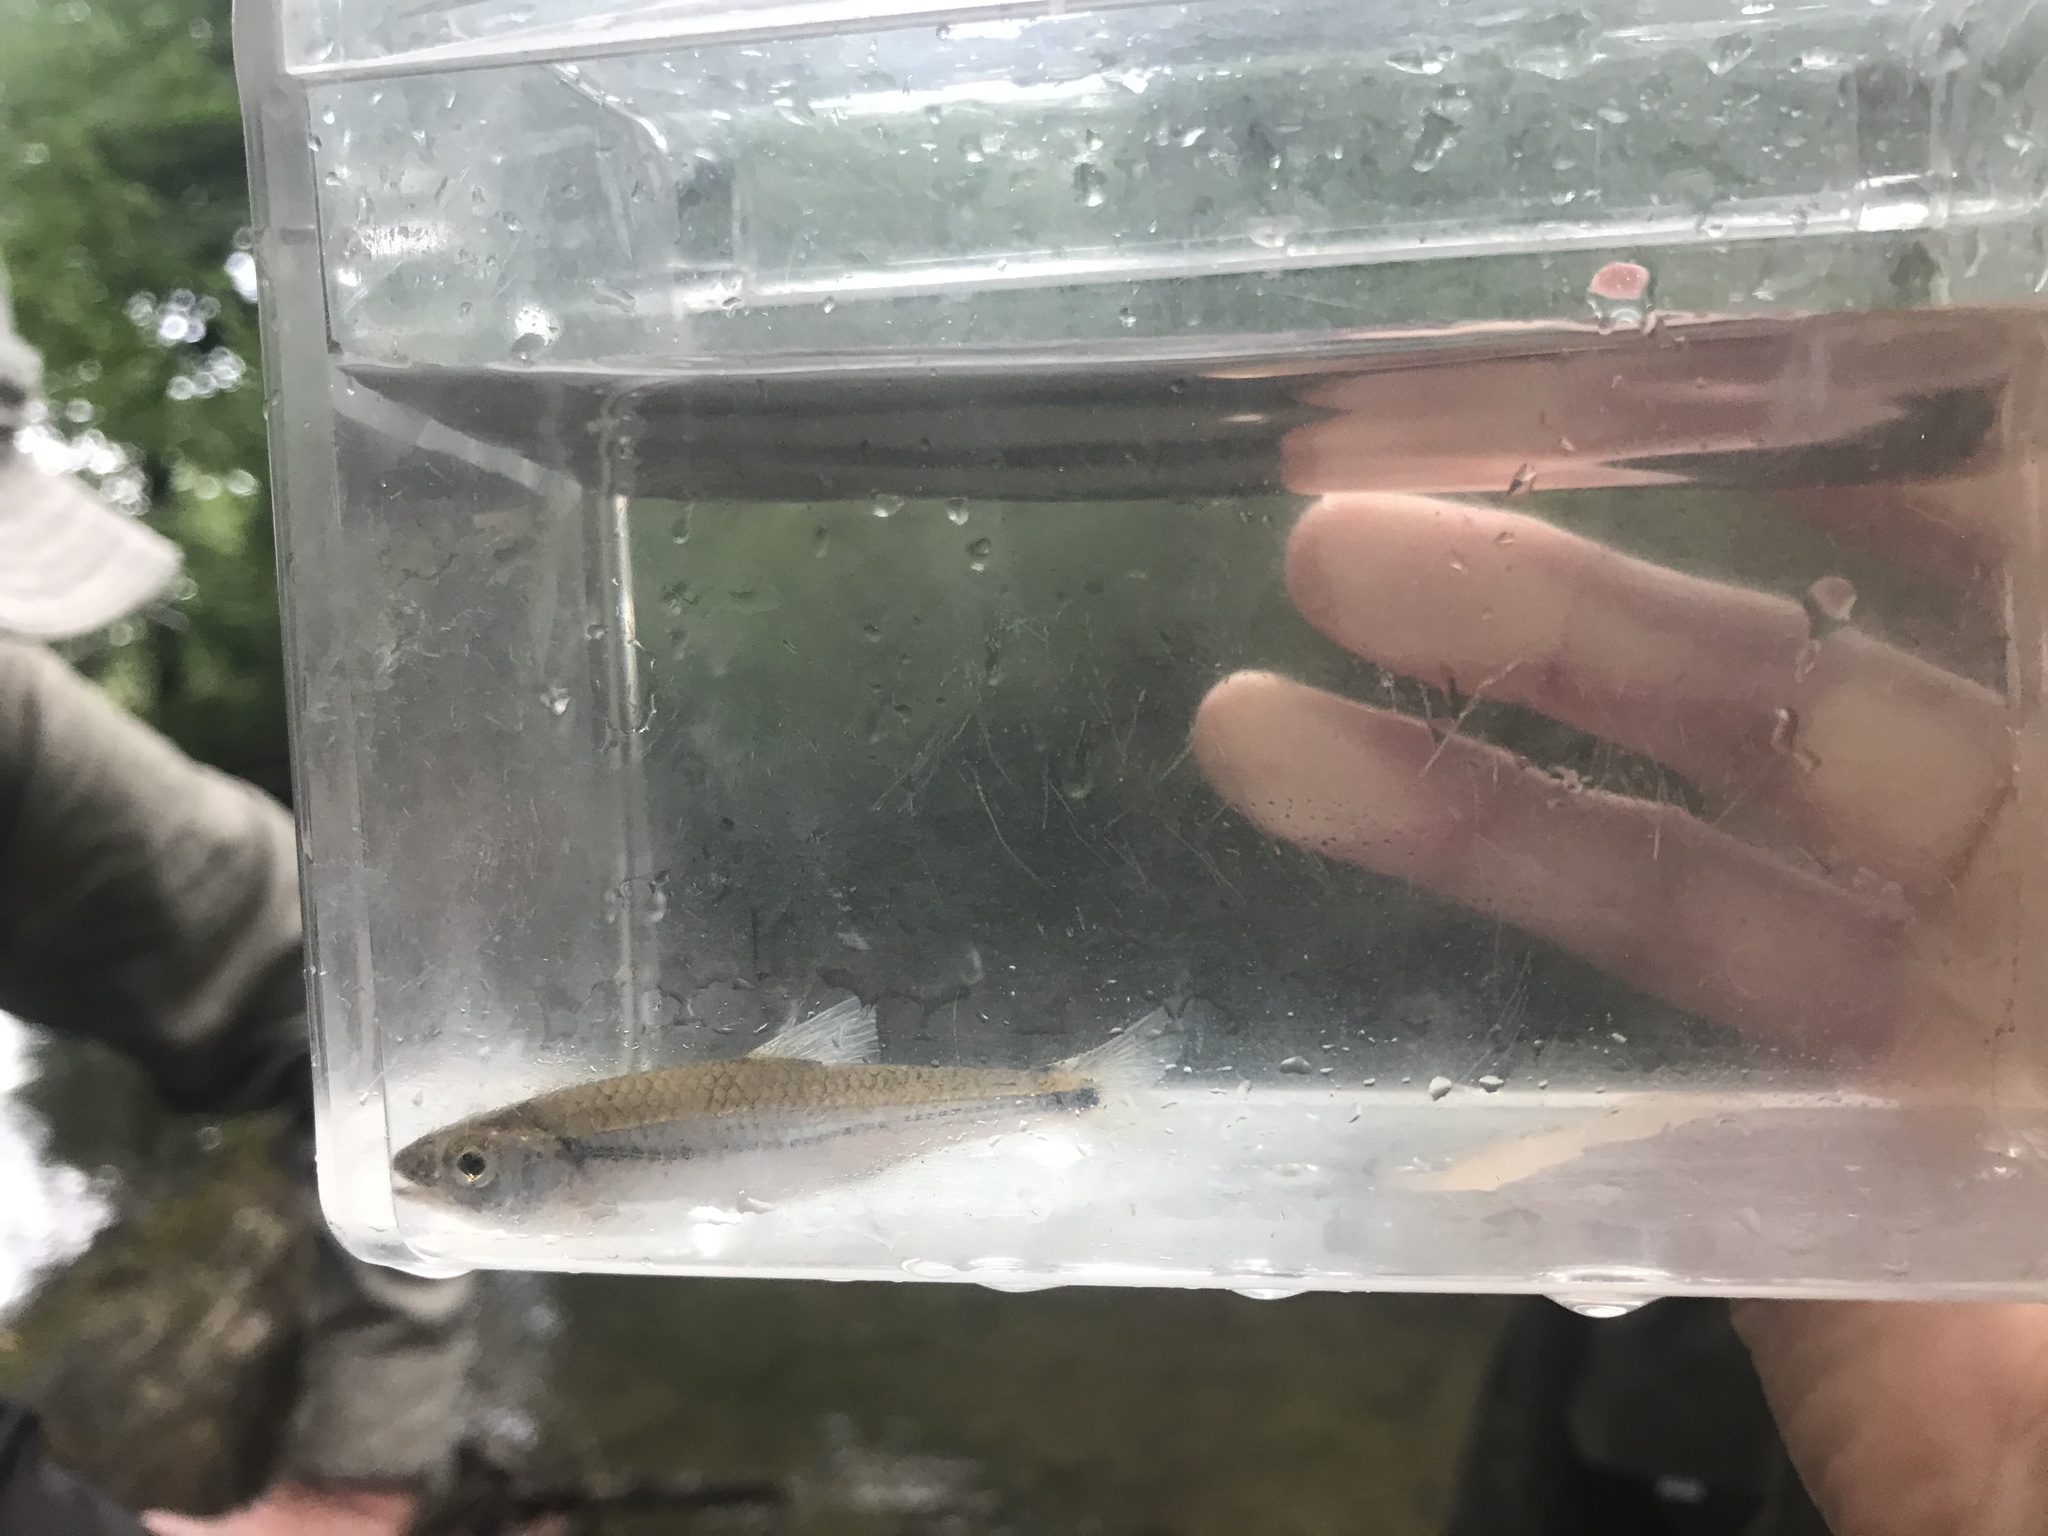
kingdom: Animalia
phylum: Chordata
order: Cypriniformes
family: Cyprinidae
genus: Notropis
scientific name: Notropis
